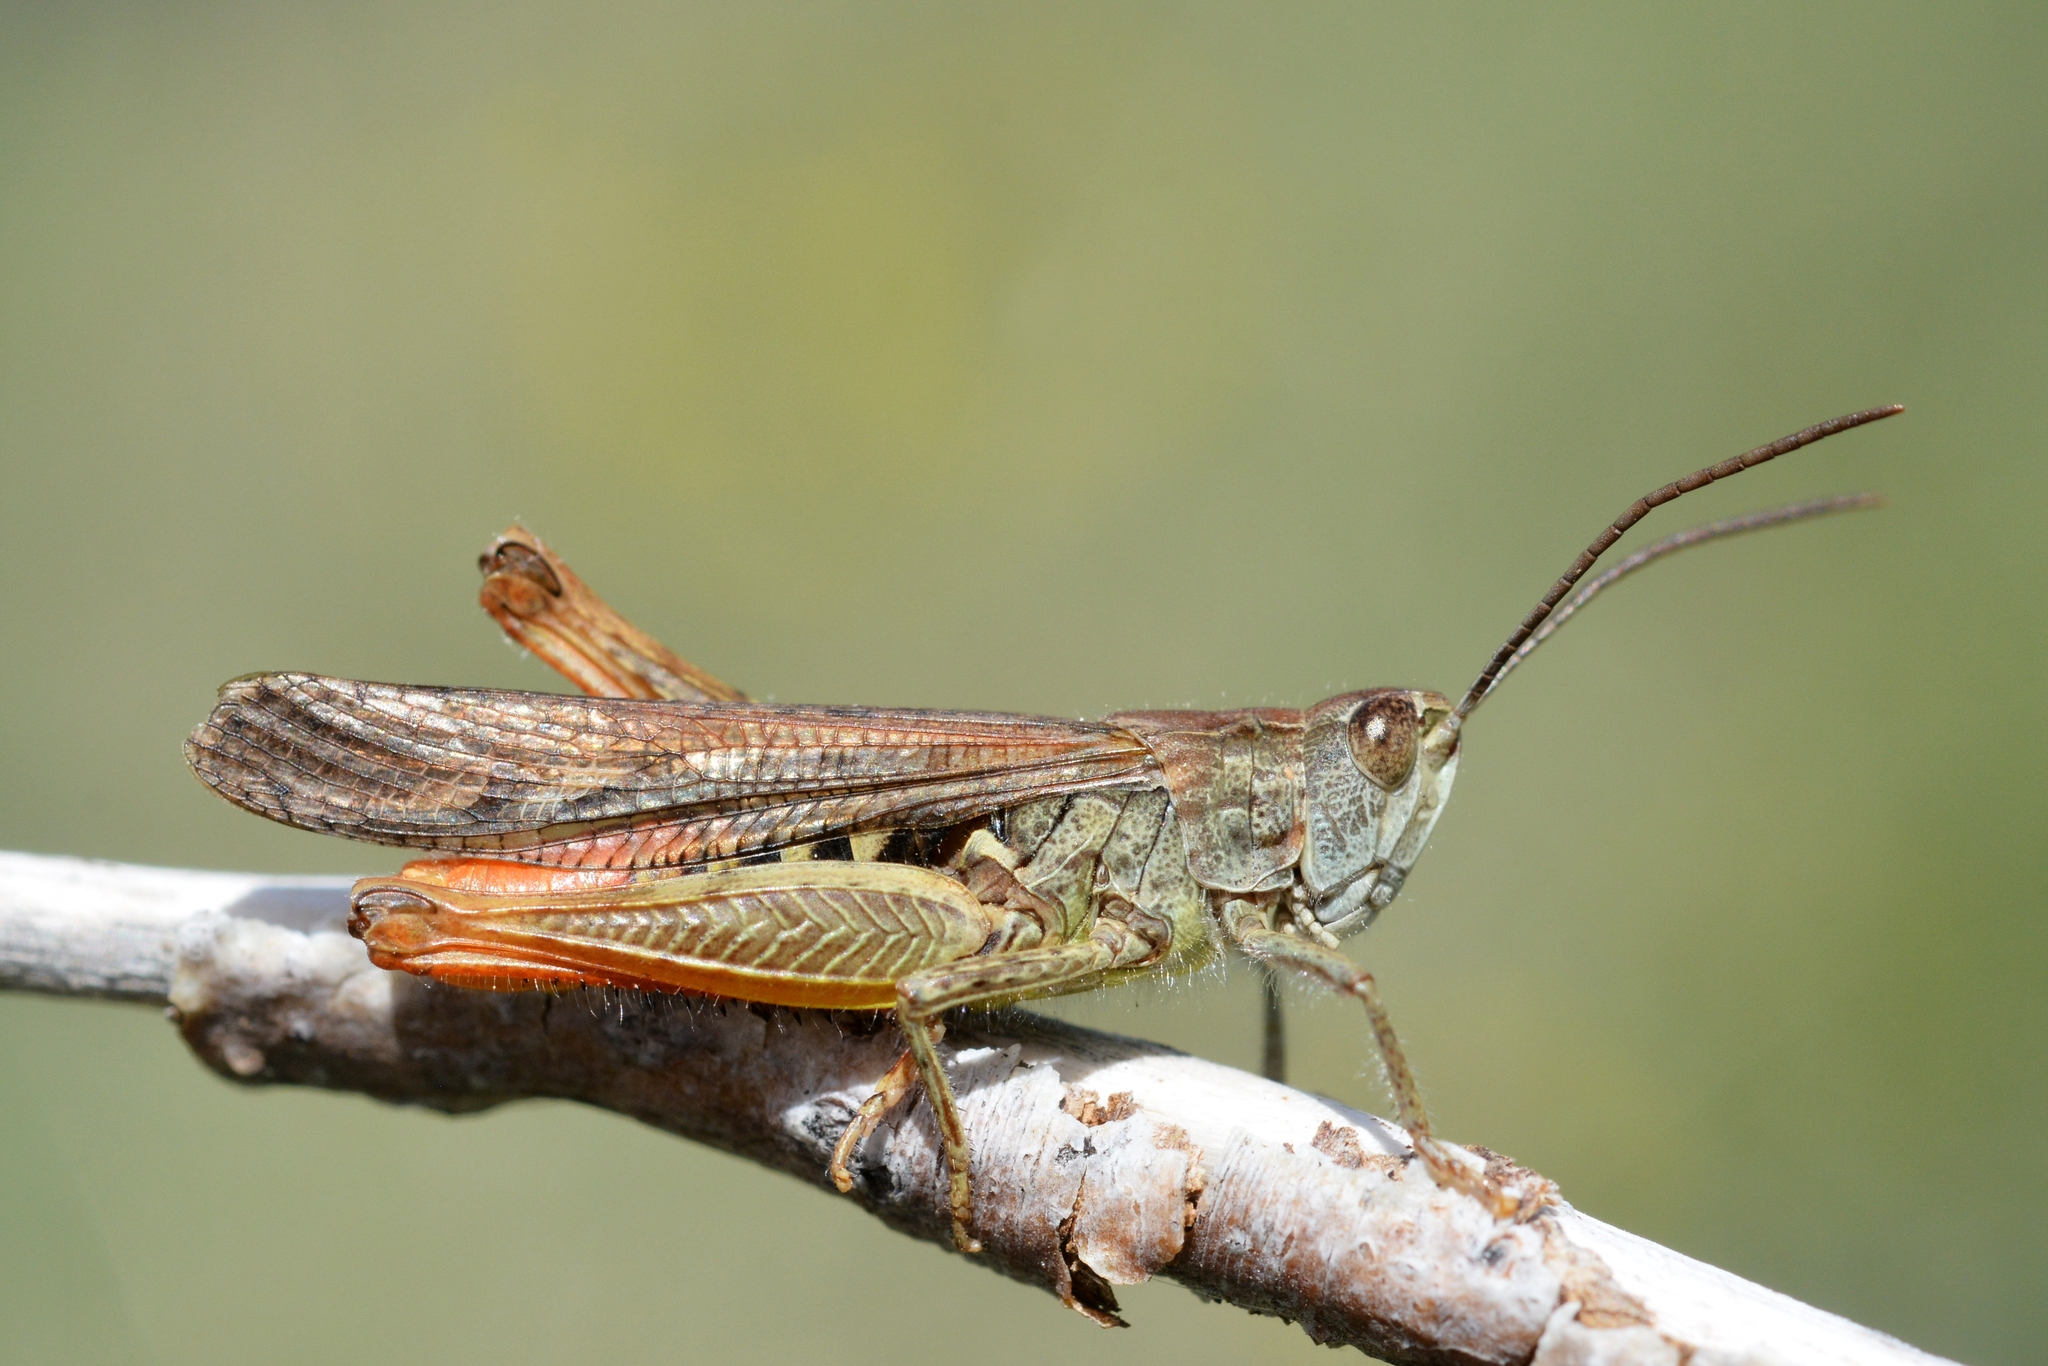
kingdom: Animalia
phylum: Arthropoda
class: Insecta
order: Orthoptera
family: Acrididae
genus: Chorthippus
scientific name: Chorthippus brunneus
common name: Field grasshopper
